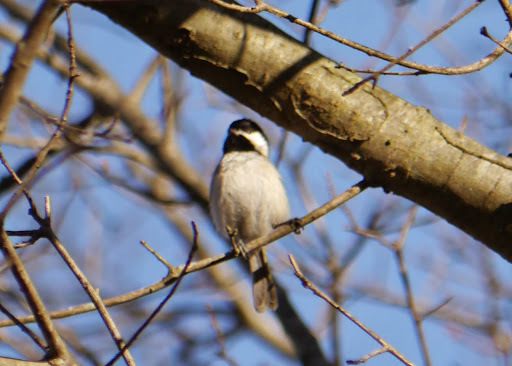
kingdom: Animalia
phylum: Chordata
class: Aves
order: Passeriformes
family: Paridae
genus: Poecile
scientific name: Poecile carolinensis
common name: Carolina chickadee
